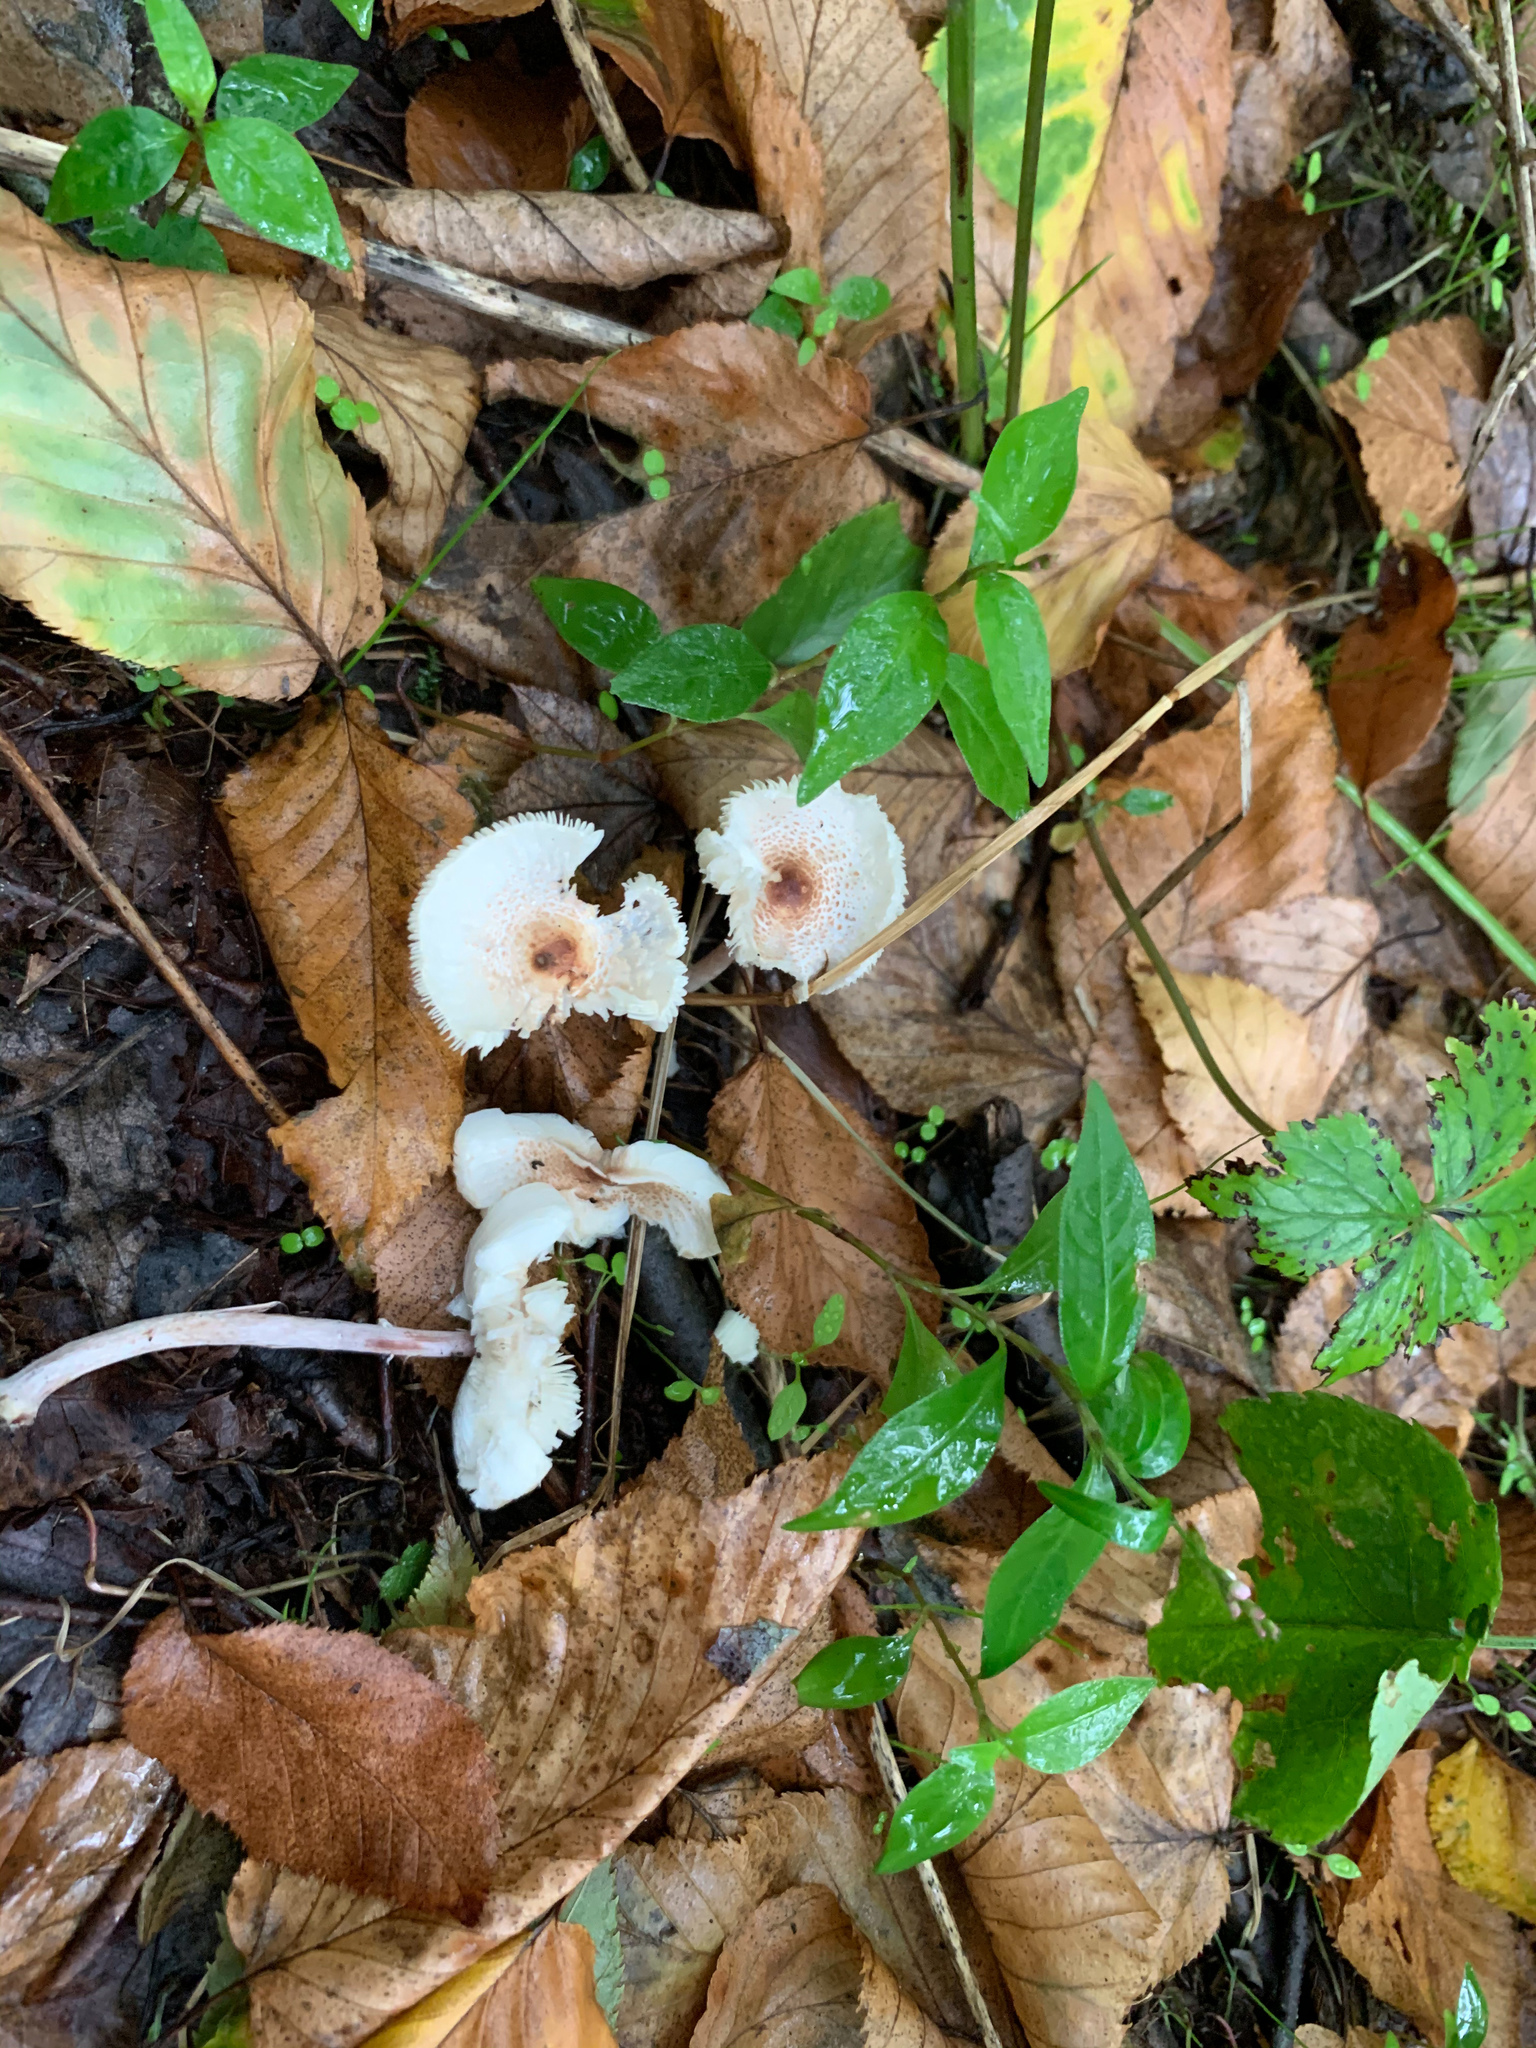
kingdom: Fungi
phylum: Basidiomycota
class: Agaricomycetes
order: Agaricales
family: Agaricaceae
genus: Lepiota
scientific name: Lepiota cristata
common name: Stinking dapperling
